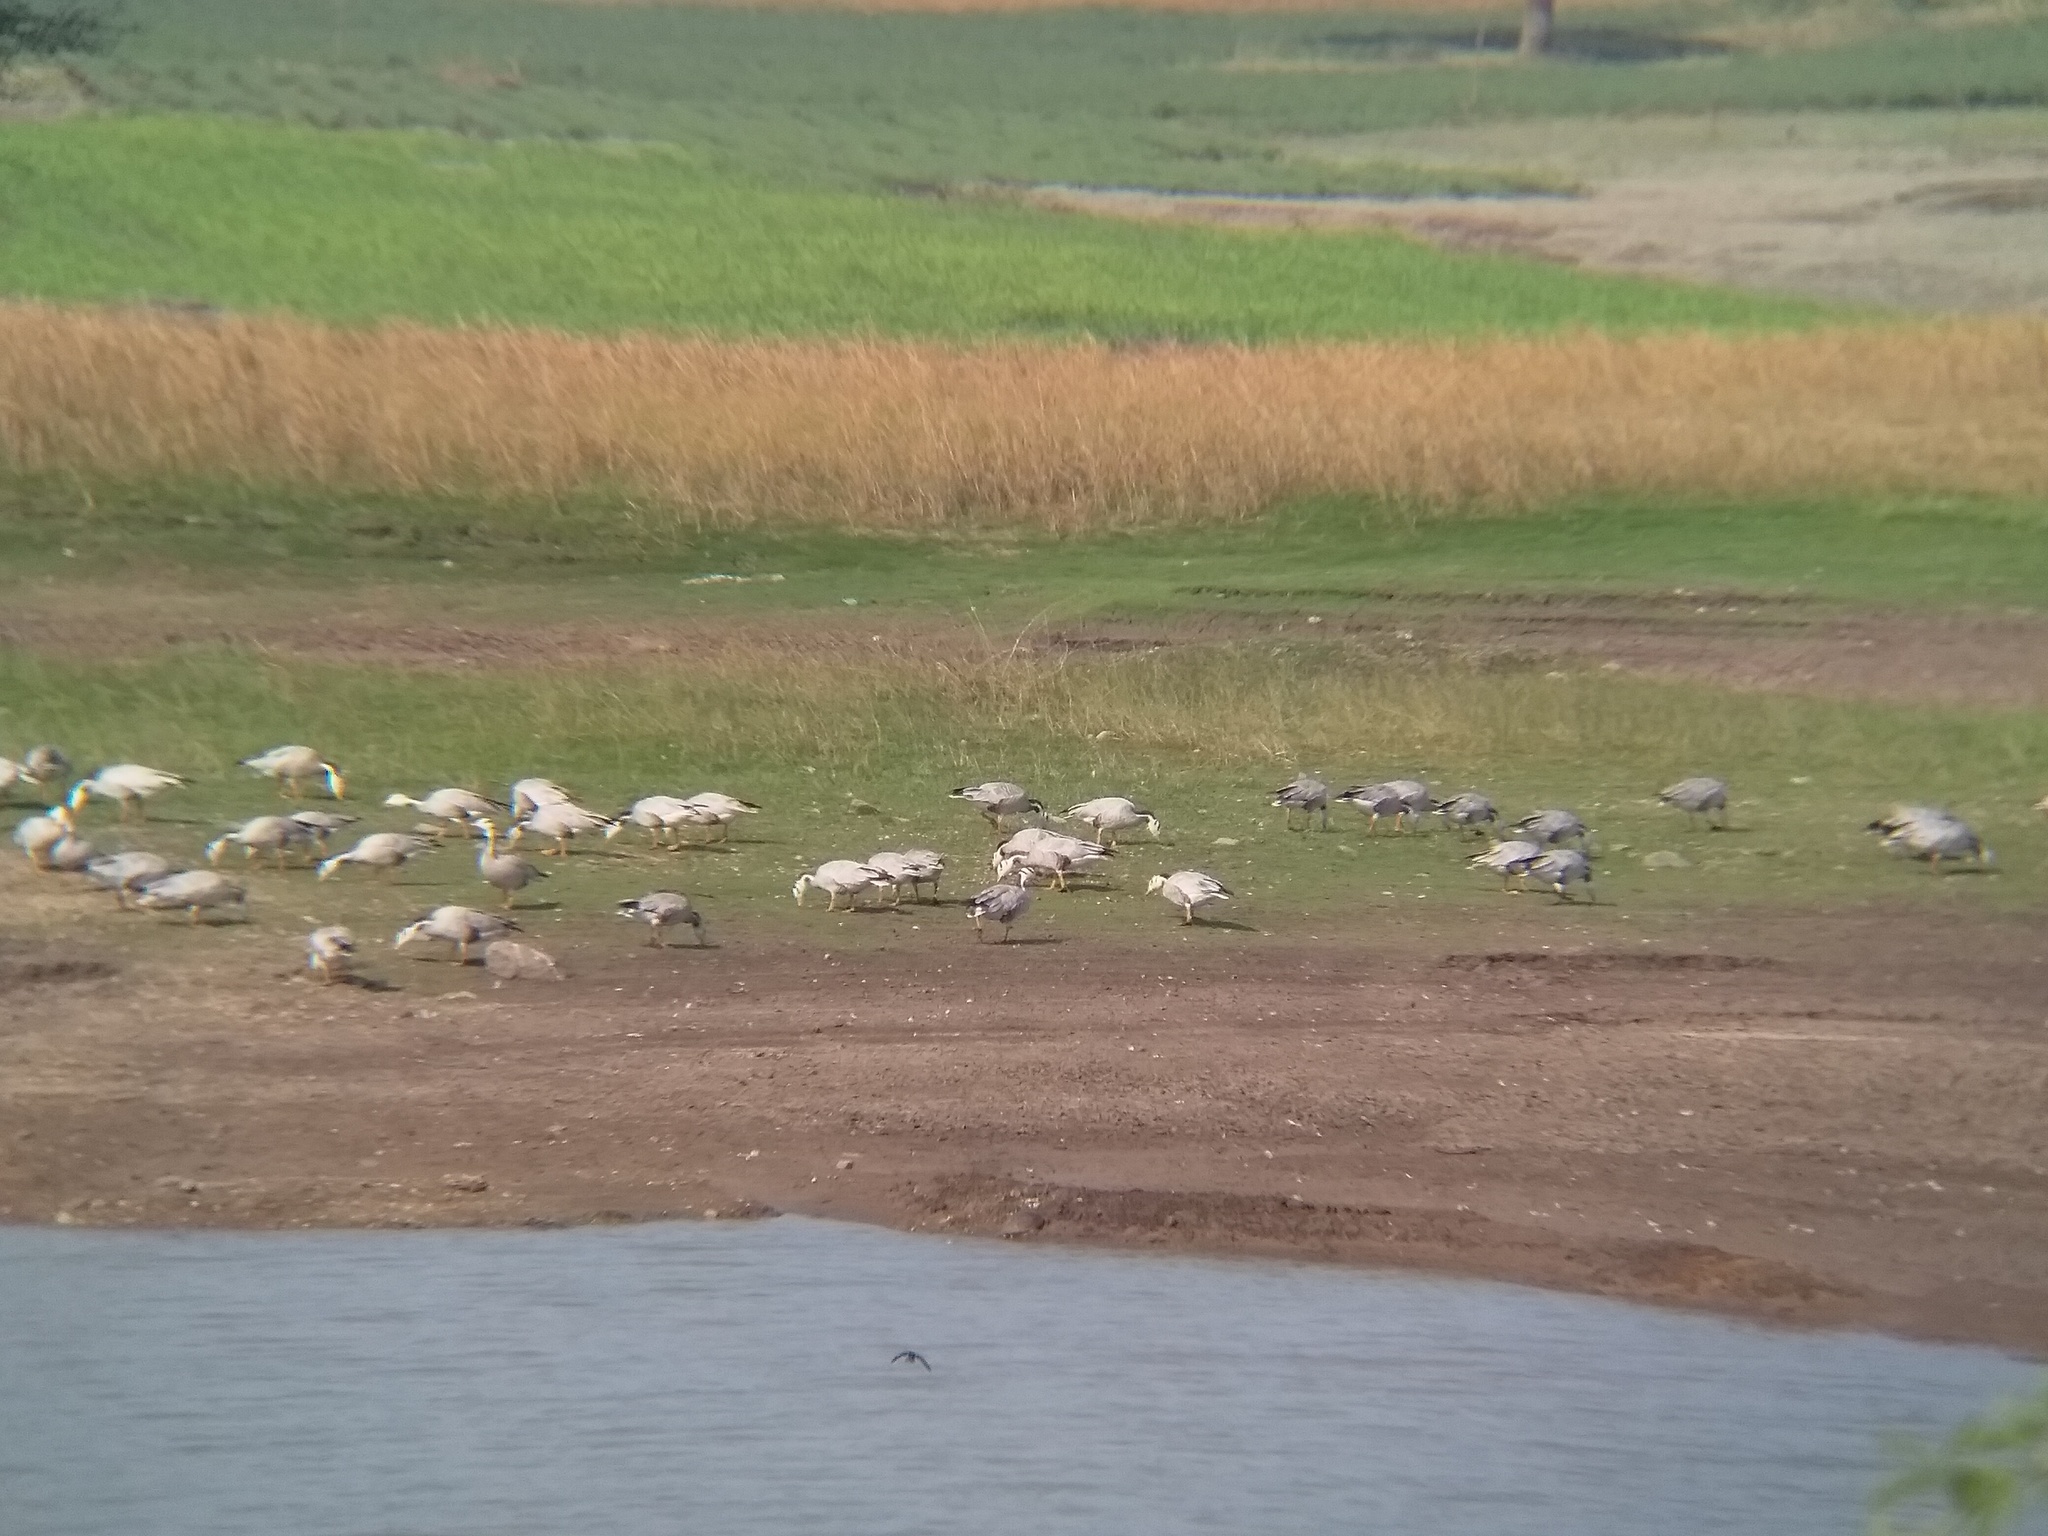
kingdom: Animalia
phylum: Chordata
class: Aves
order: Anseriformes
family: Anatidae
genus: Anser
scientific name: Anser indicus
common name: Bar-headed goose
